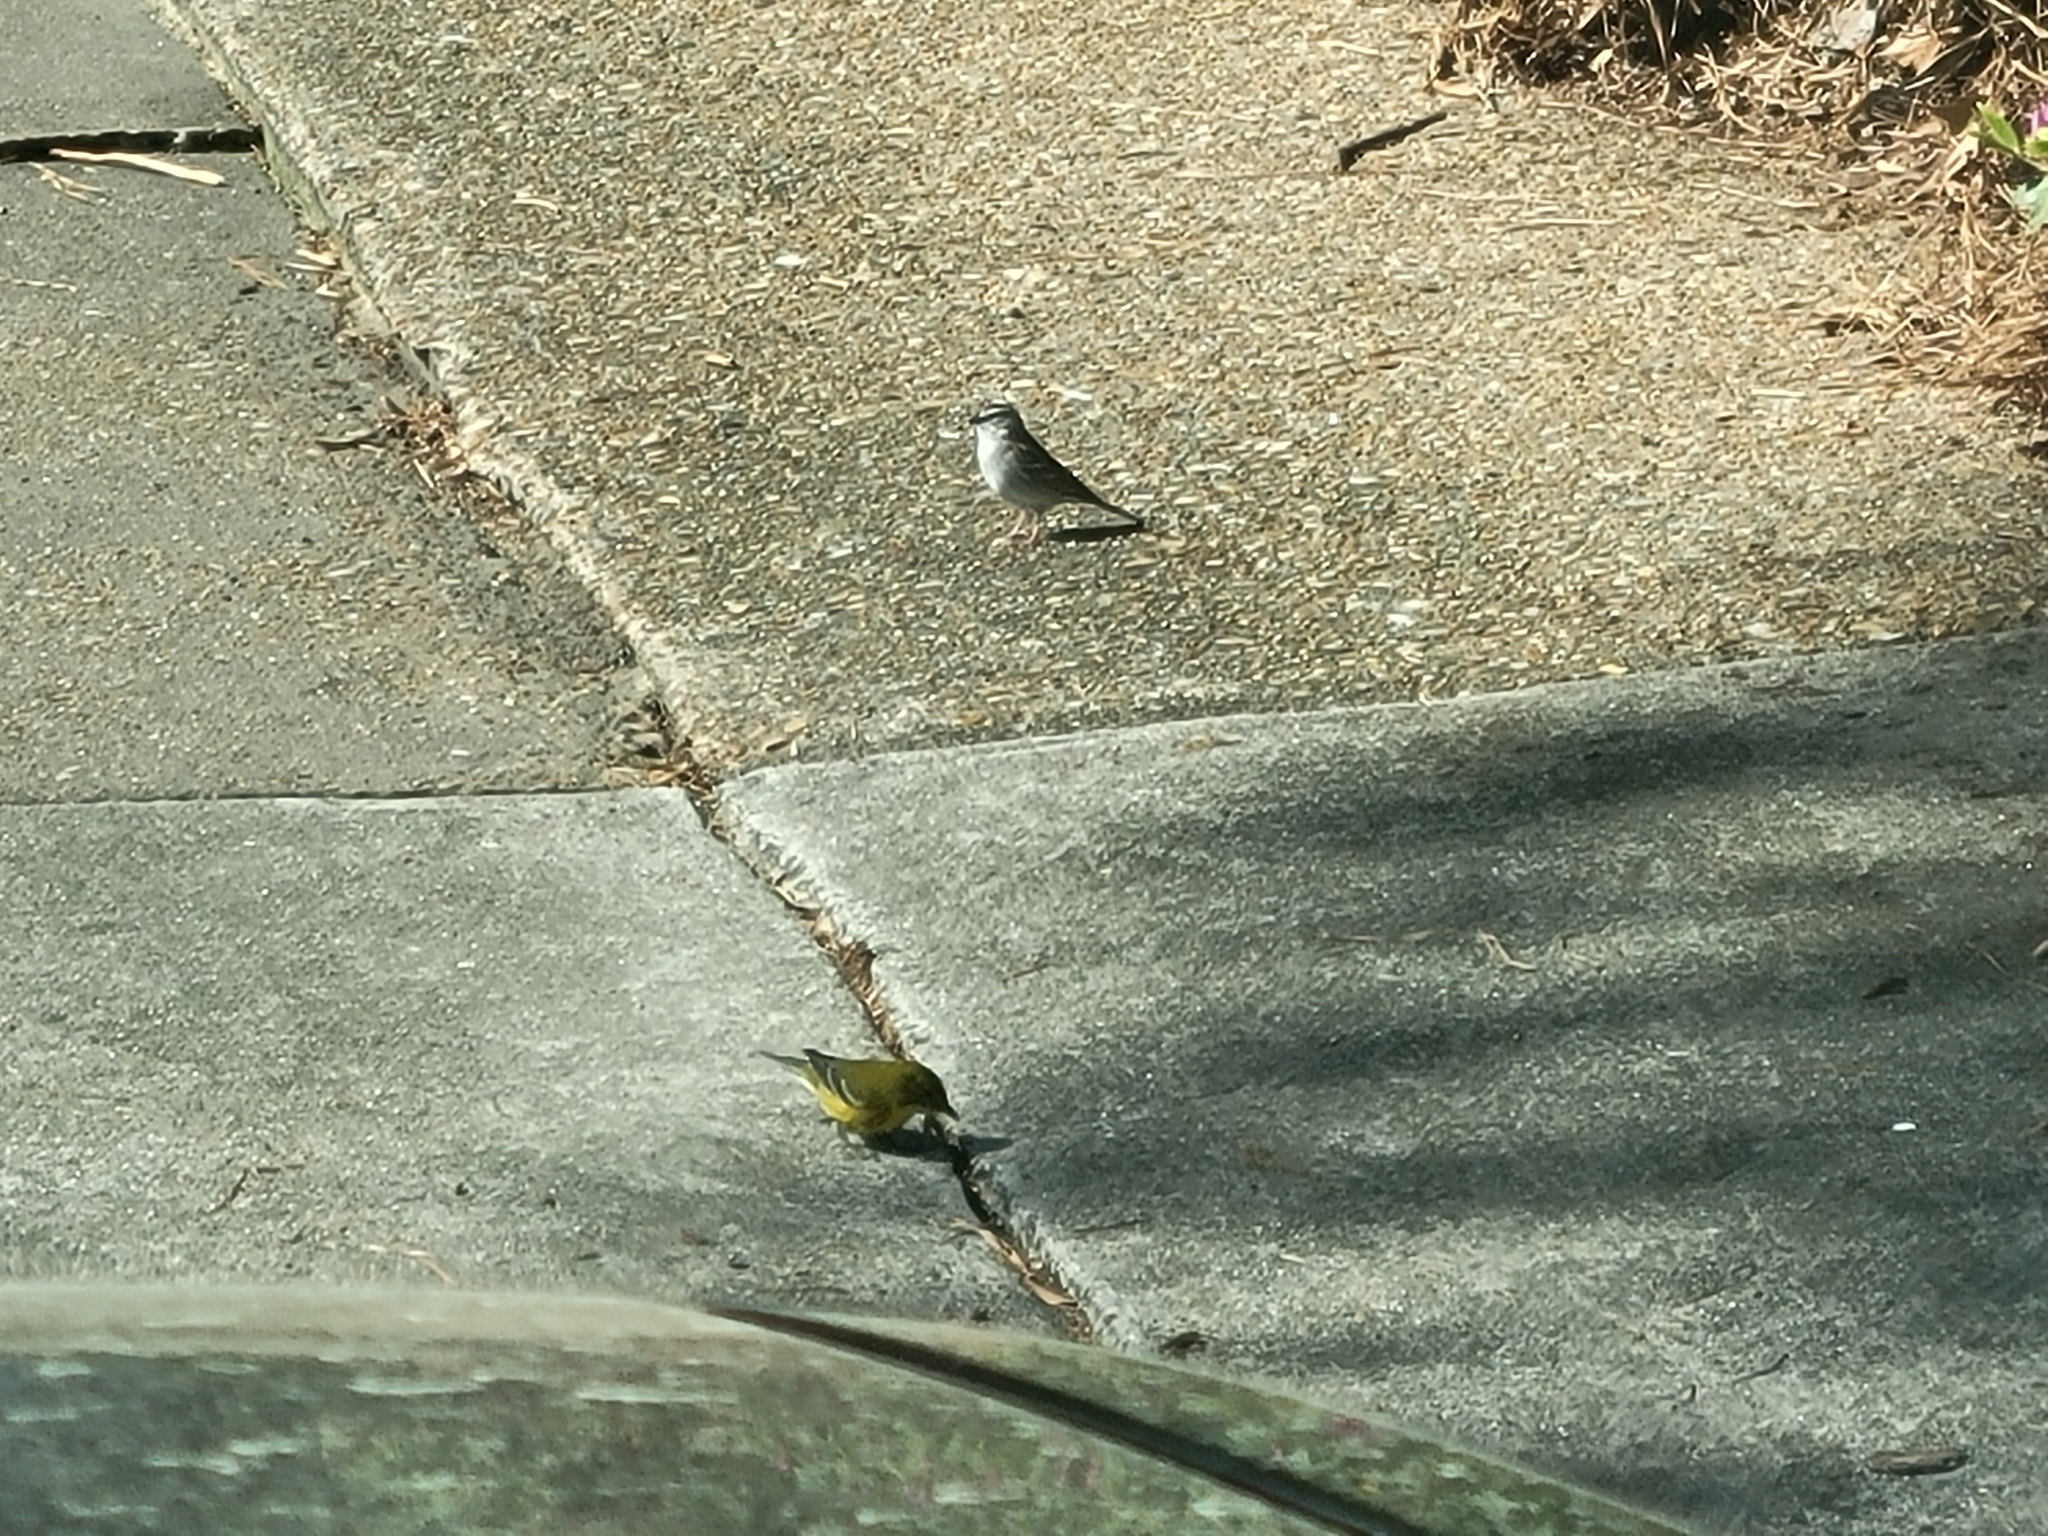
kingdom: Animalia
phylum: Chordata
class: Aves
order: Passeriformes
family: Passerellidae
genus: Spizella
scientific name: Spizella passerina
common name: Chipping sparrow
